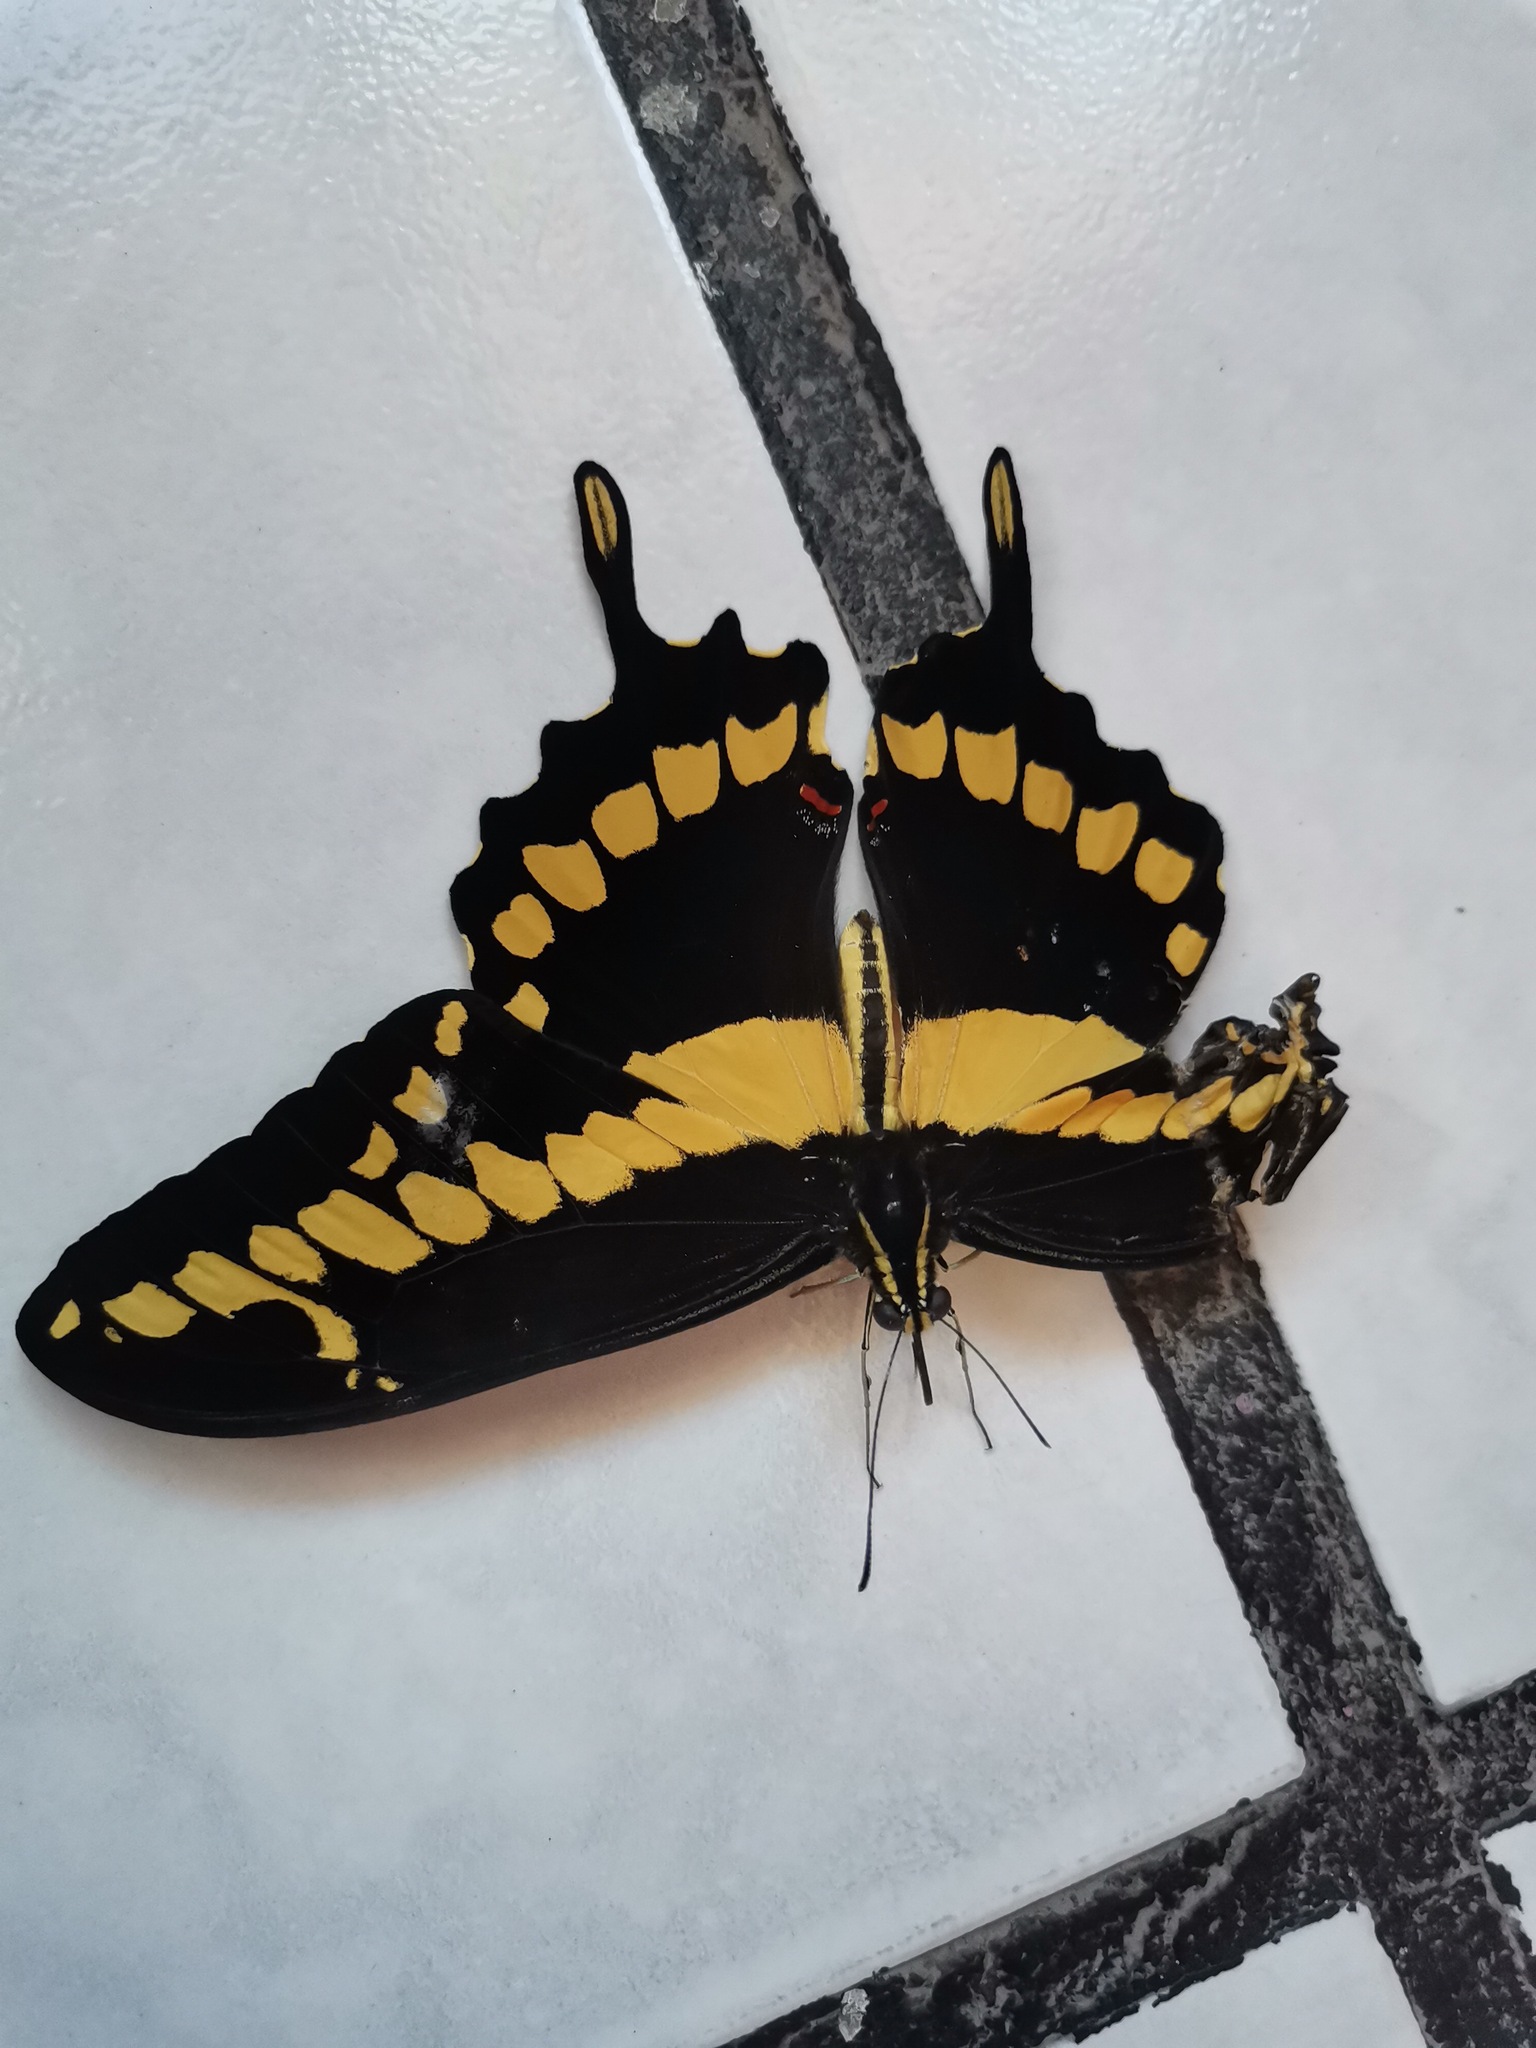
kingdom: Animalia
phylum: Arthropoda
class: Insecta
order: Lepidoptera
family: Papilionidae
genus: Papilio
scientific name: Papilio rumiko
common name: Western giant swallowtail
